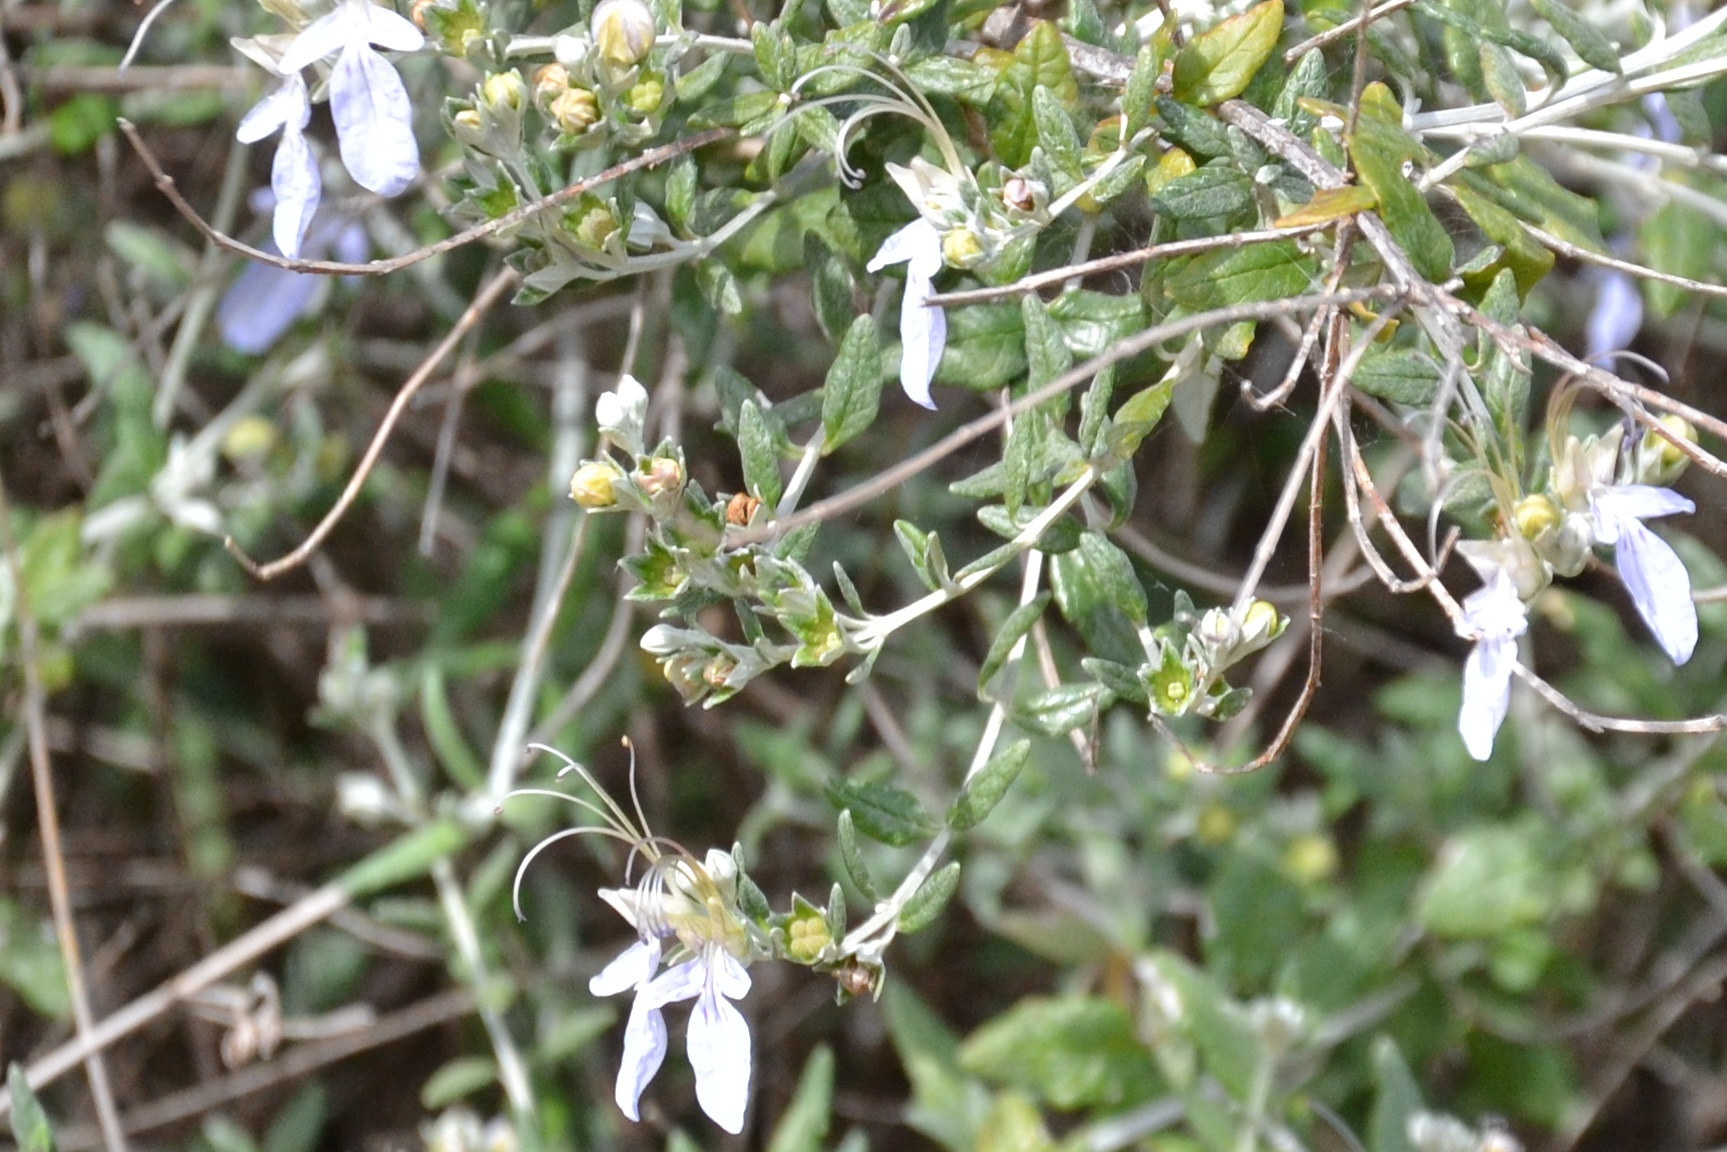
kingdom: Plantae
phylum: Tracheophyta
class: Magnoliopsida
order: Lamiales
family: Lamiaceae
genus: Teucrium
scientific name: Teucrium fruticans
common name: Shrubby germander
